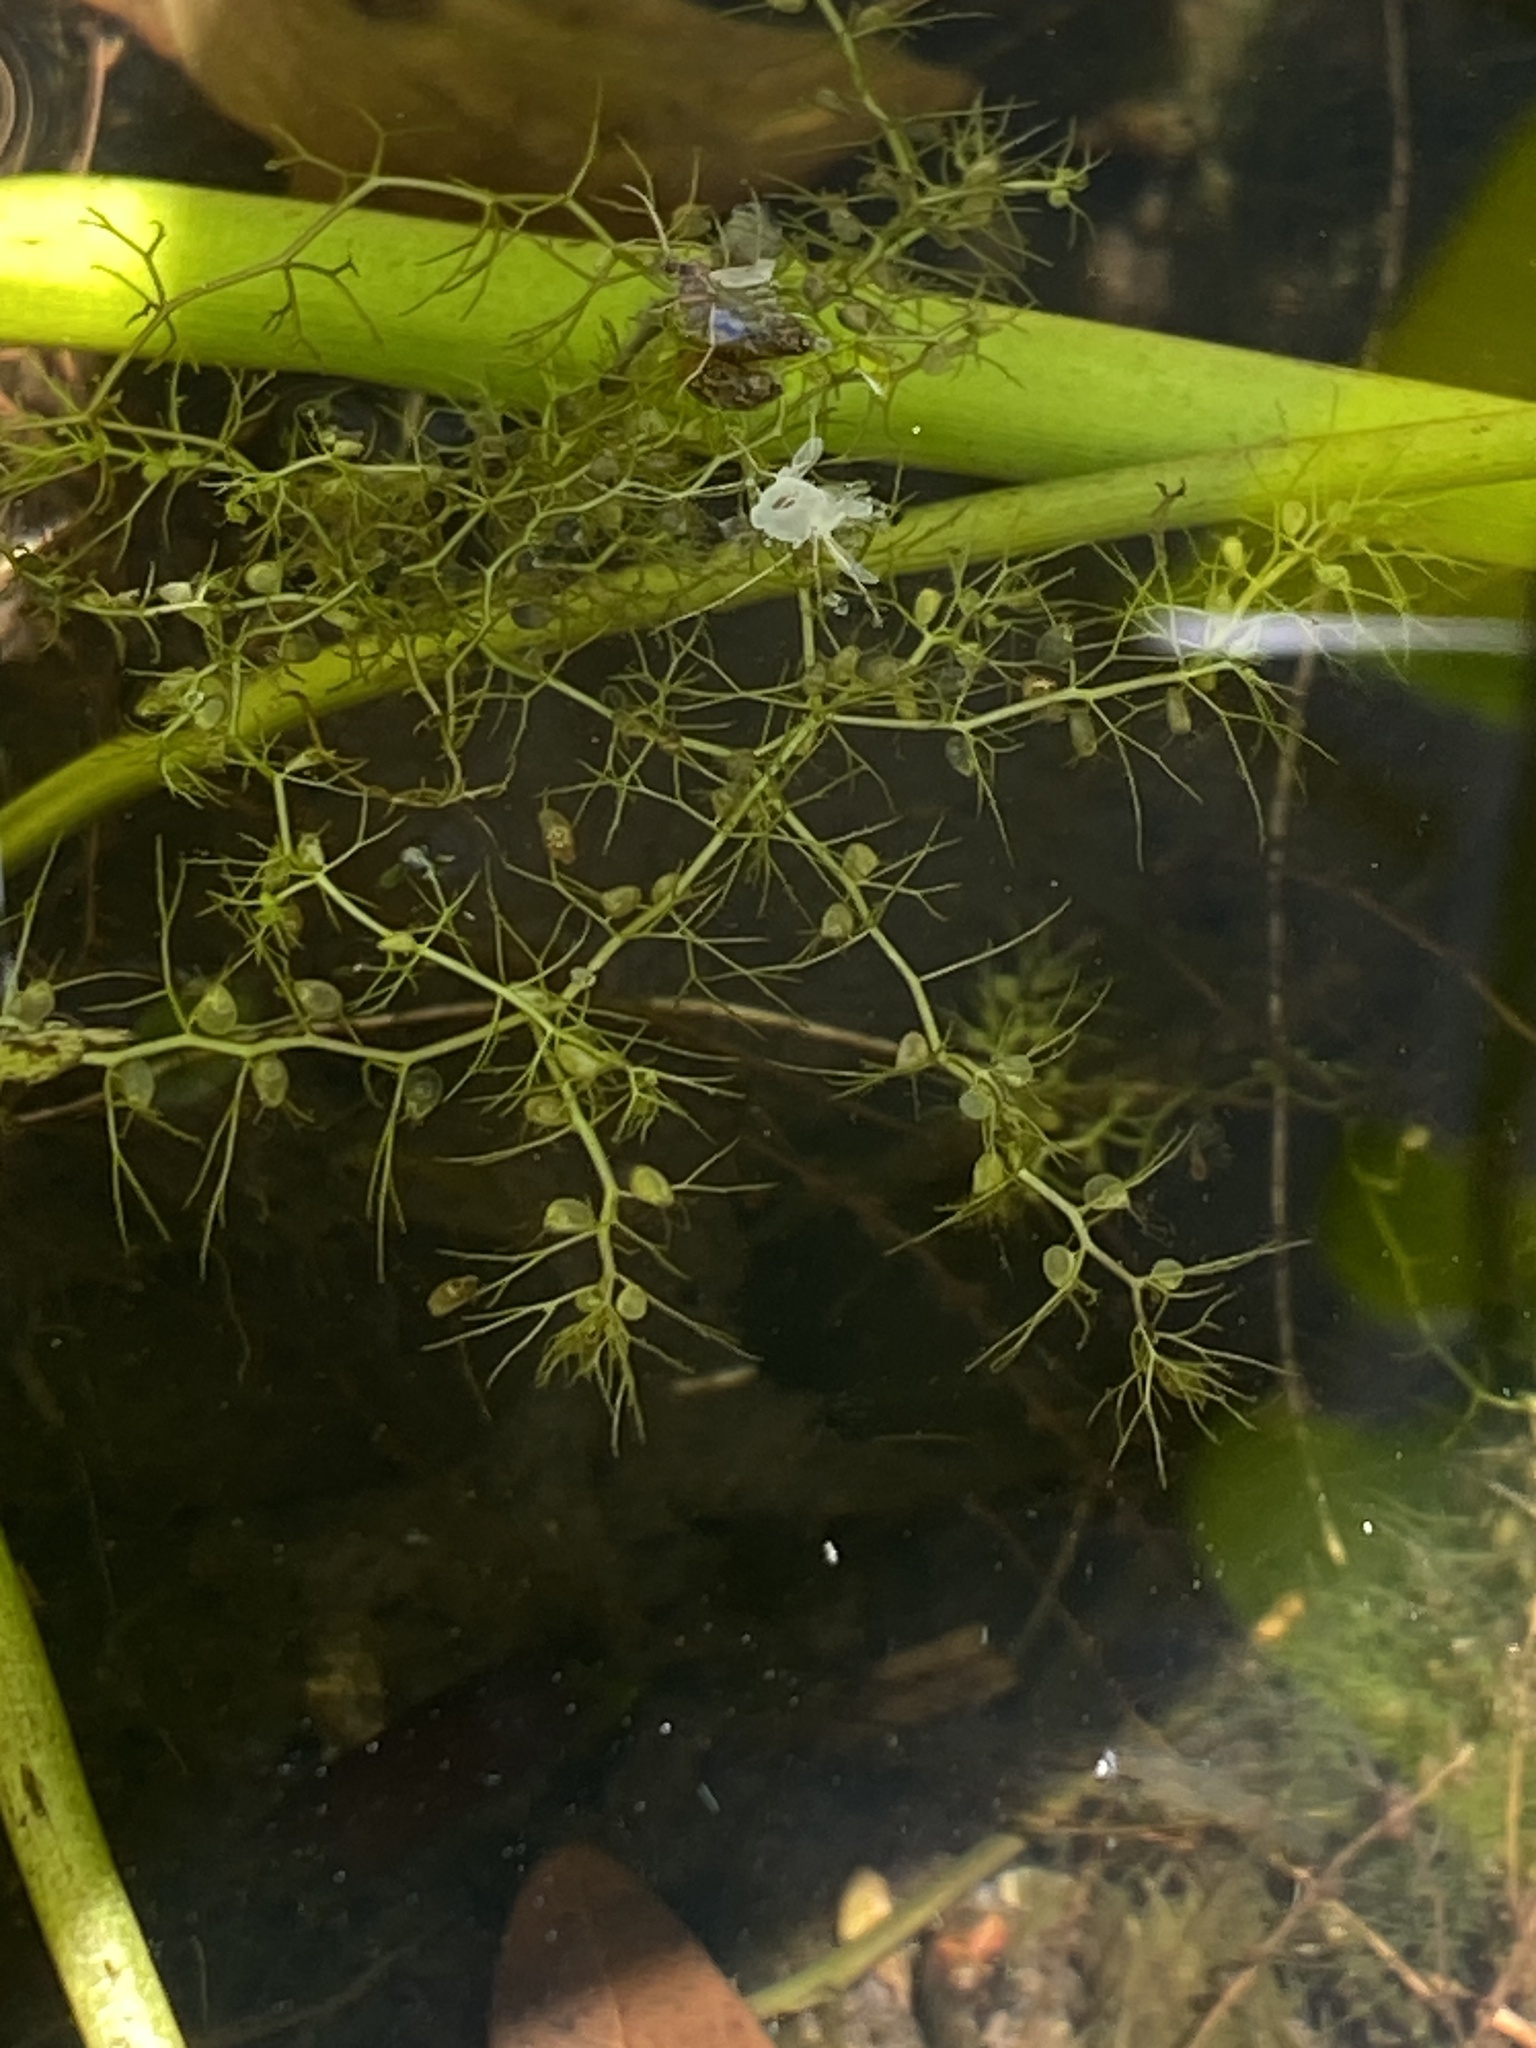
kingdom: Plantae
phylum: Tracheophyta
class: Magnoliopsida
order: Lamiales
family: Lentibulariaceae
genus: Utricularia
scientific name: Utricularia gibba
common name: Humped bladderwort
